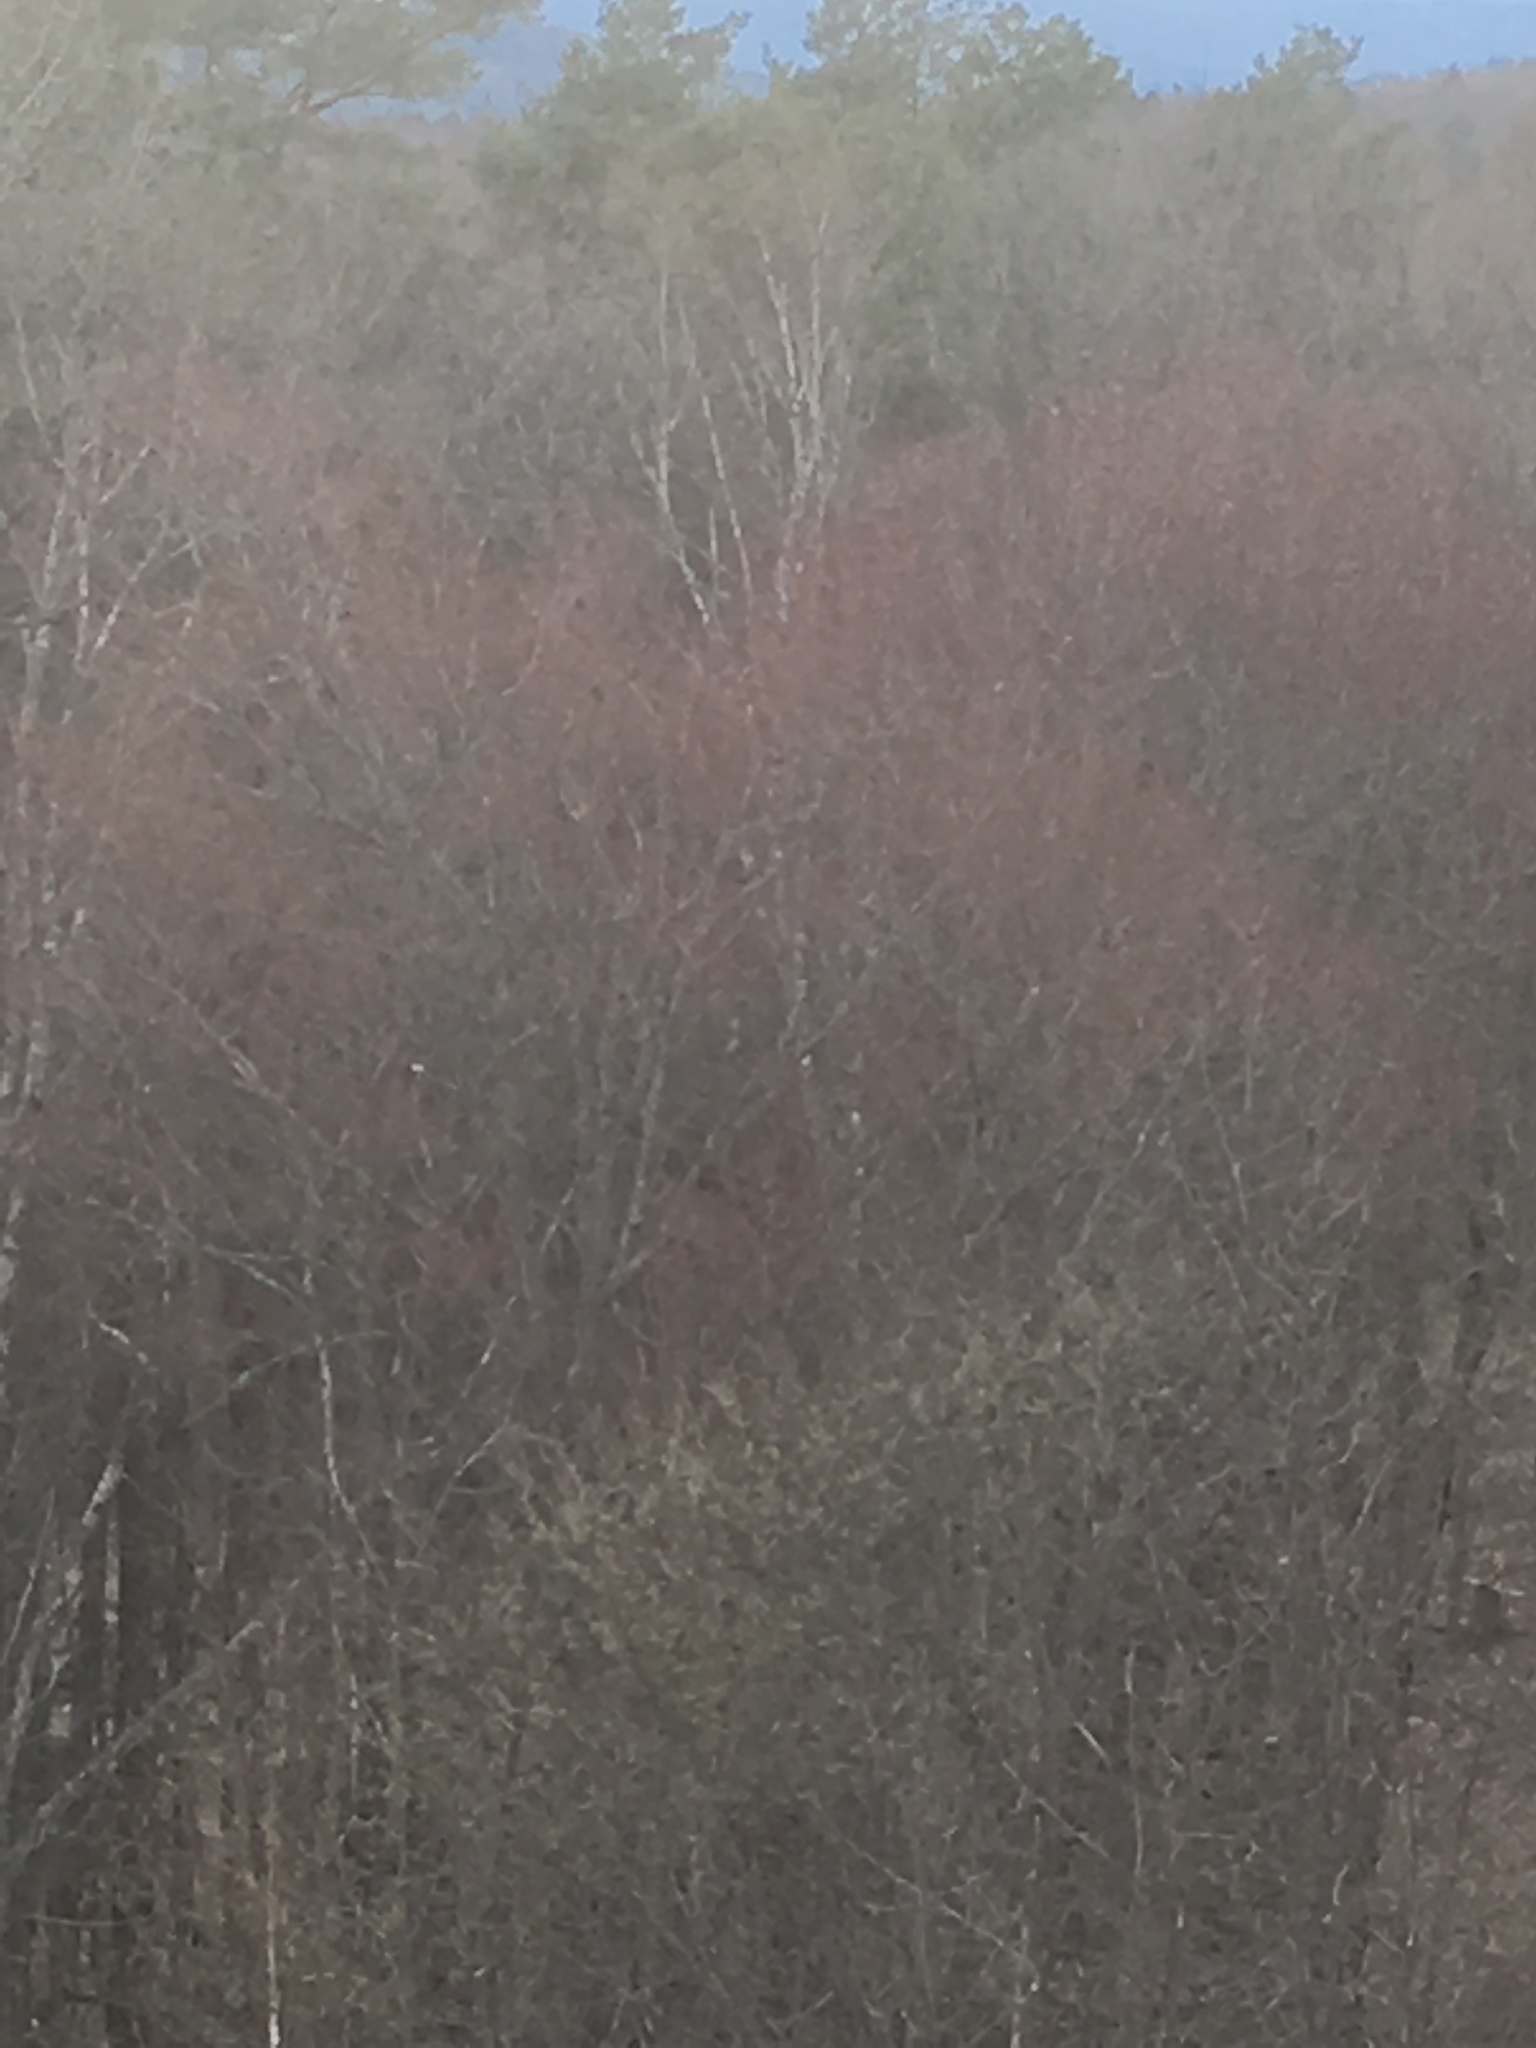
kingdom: Plantae
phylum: Tracheophyta
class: Magnoliopsida
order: Sapindales
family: Sapindaceae
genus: Acer
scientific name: Acer rubrum
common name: Red maple
